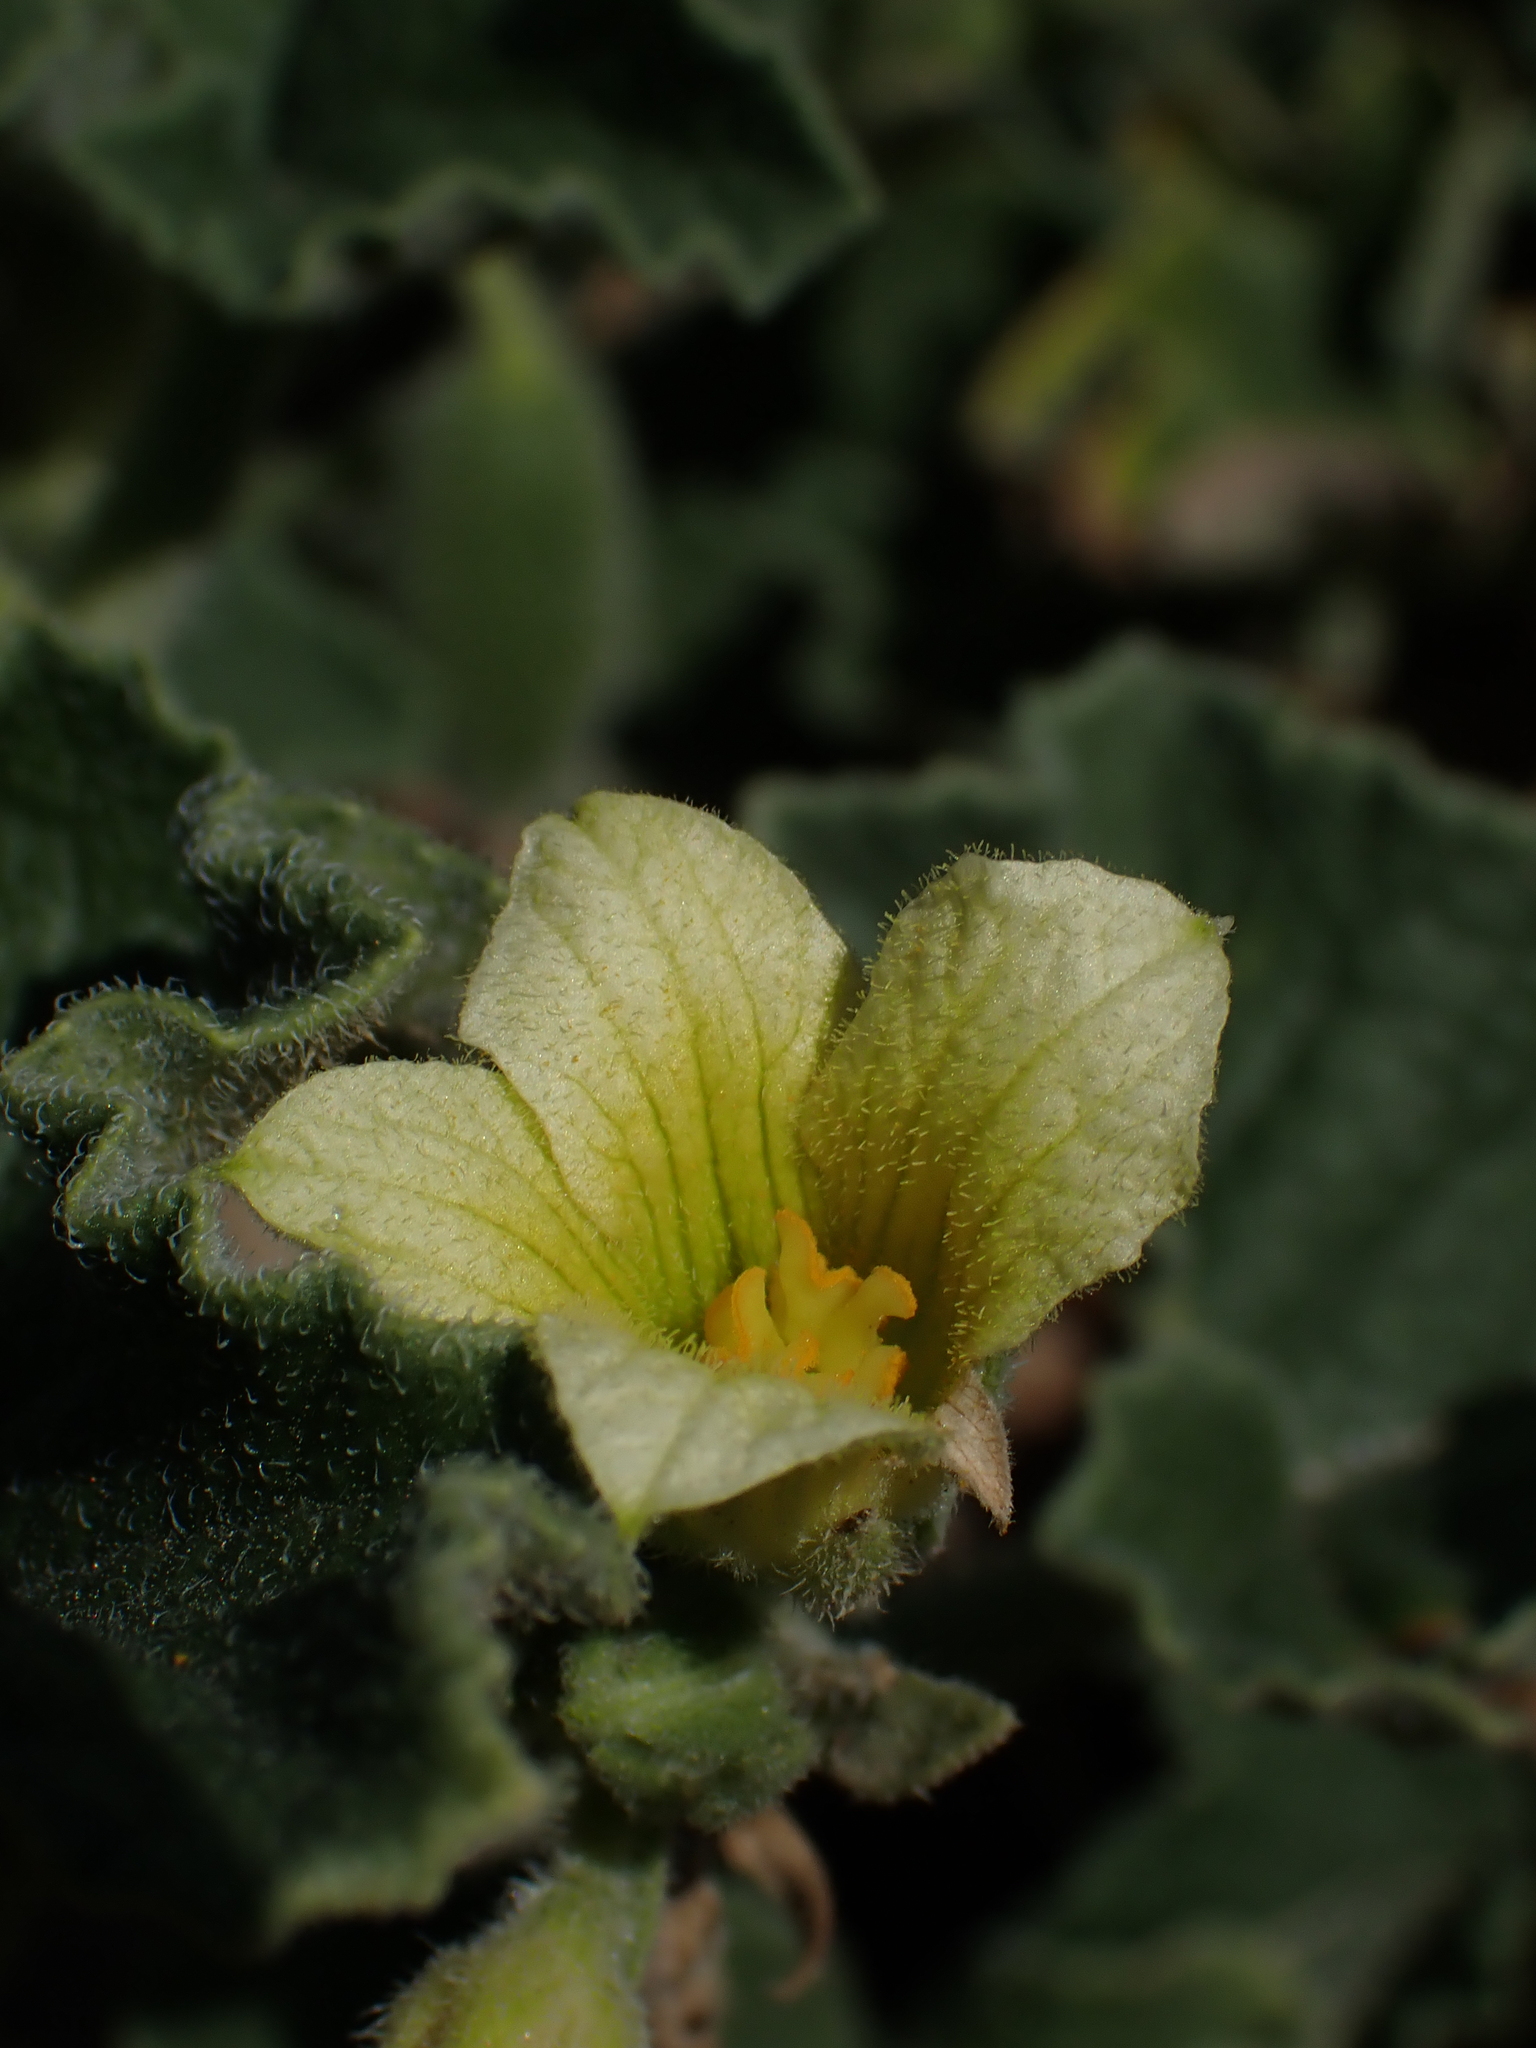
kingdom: Plantae
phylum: Tracheophyta
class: Magnoliopsida
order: Cucurbitales
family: Cucurbitaceae
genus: Ecballium
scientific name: Ecballium elaterium
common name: Squirting cucumber
